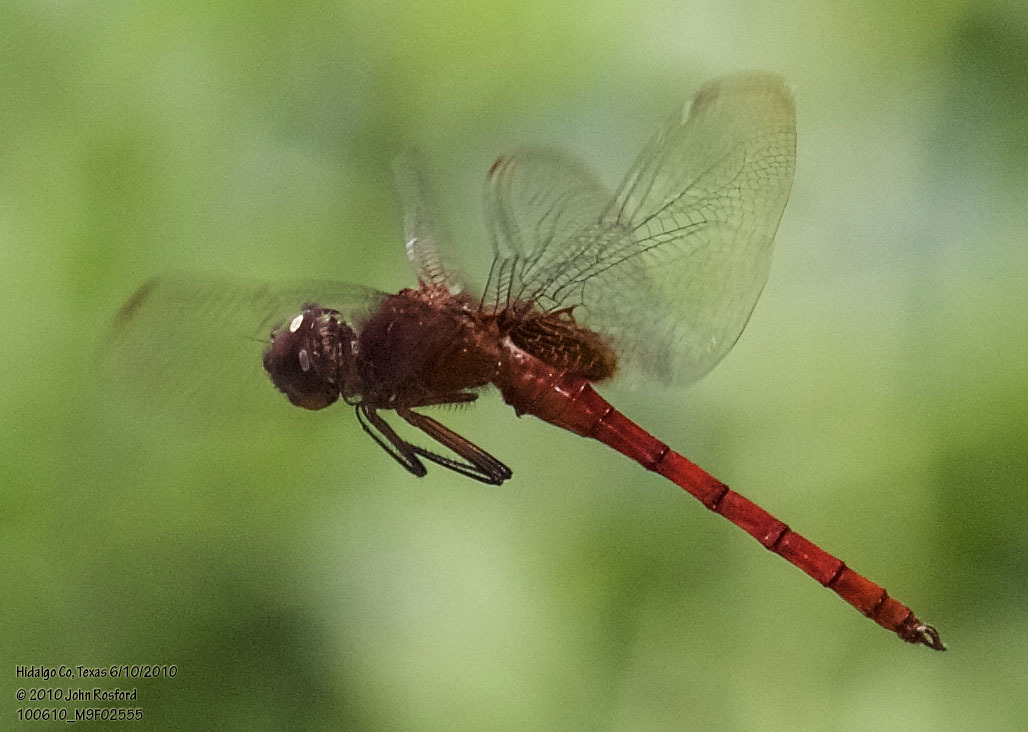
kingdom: Animalia
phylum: Arthropoda
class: Insecta
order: Odonata
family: Libellulidae
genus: Tauriphila
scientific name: Tauriphila argo
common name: Arch-tipped glider
